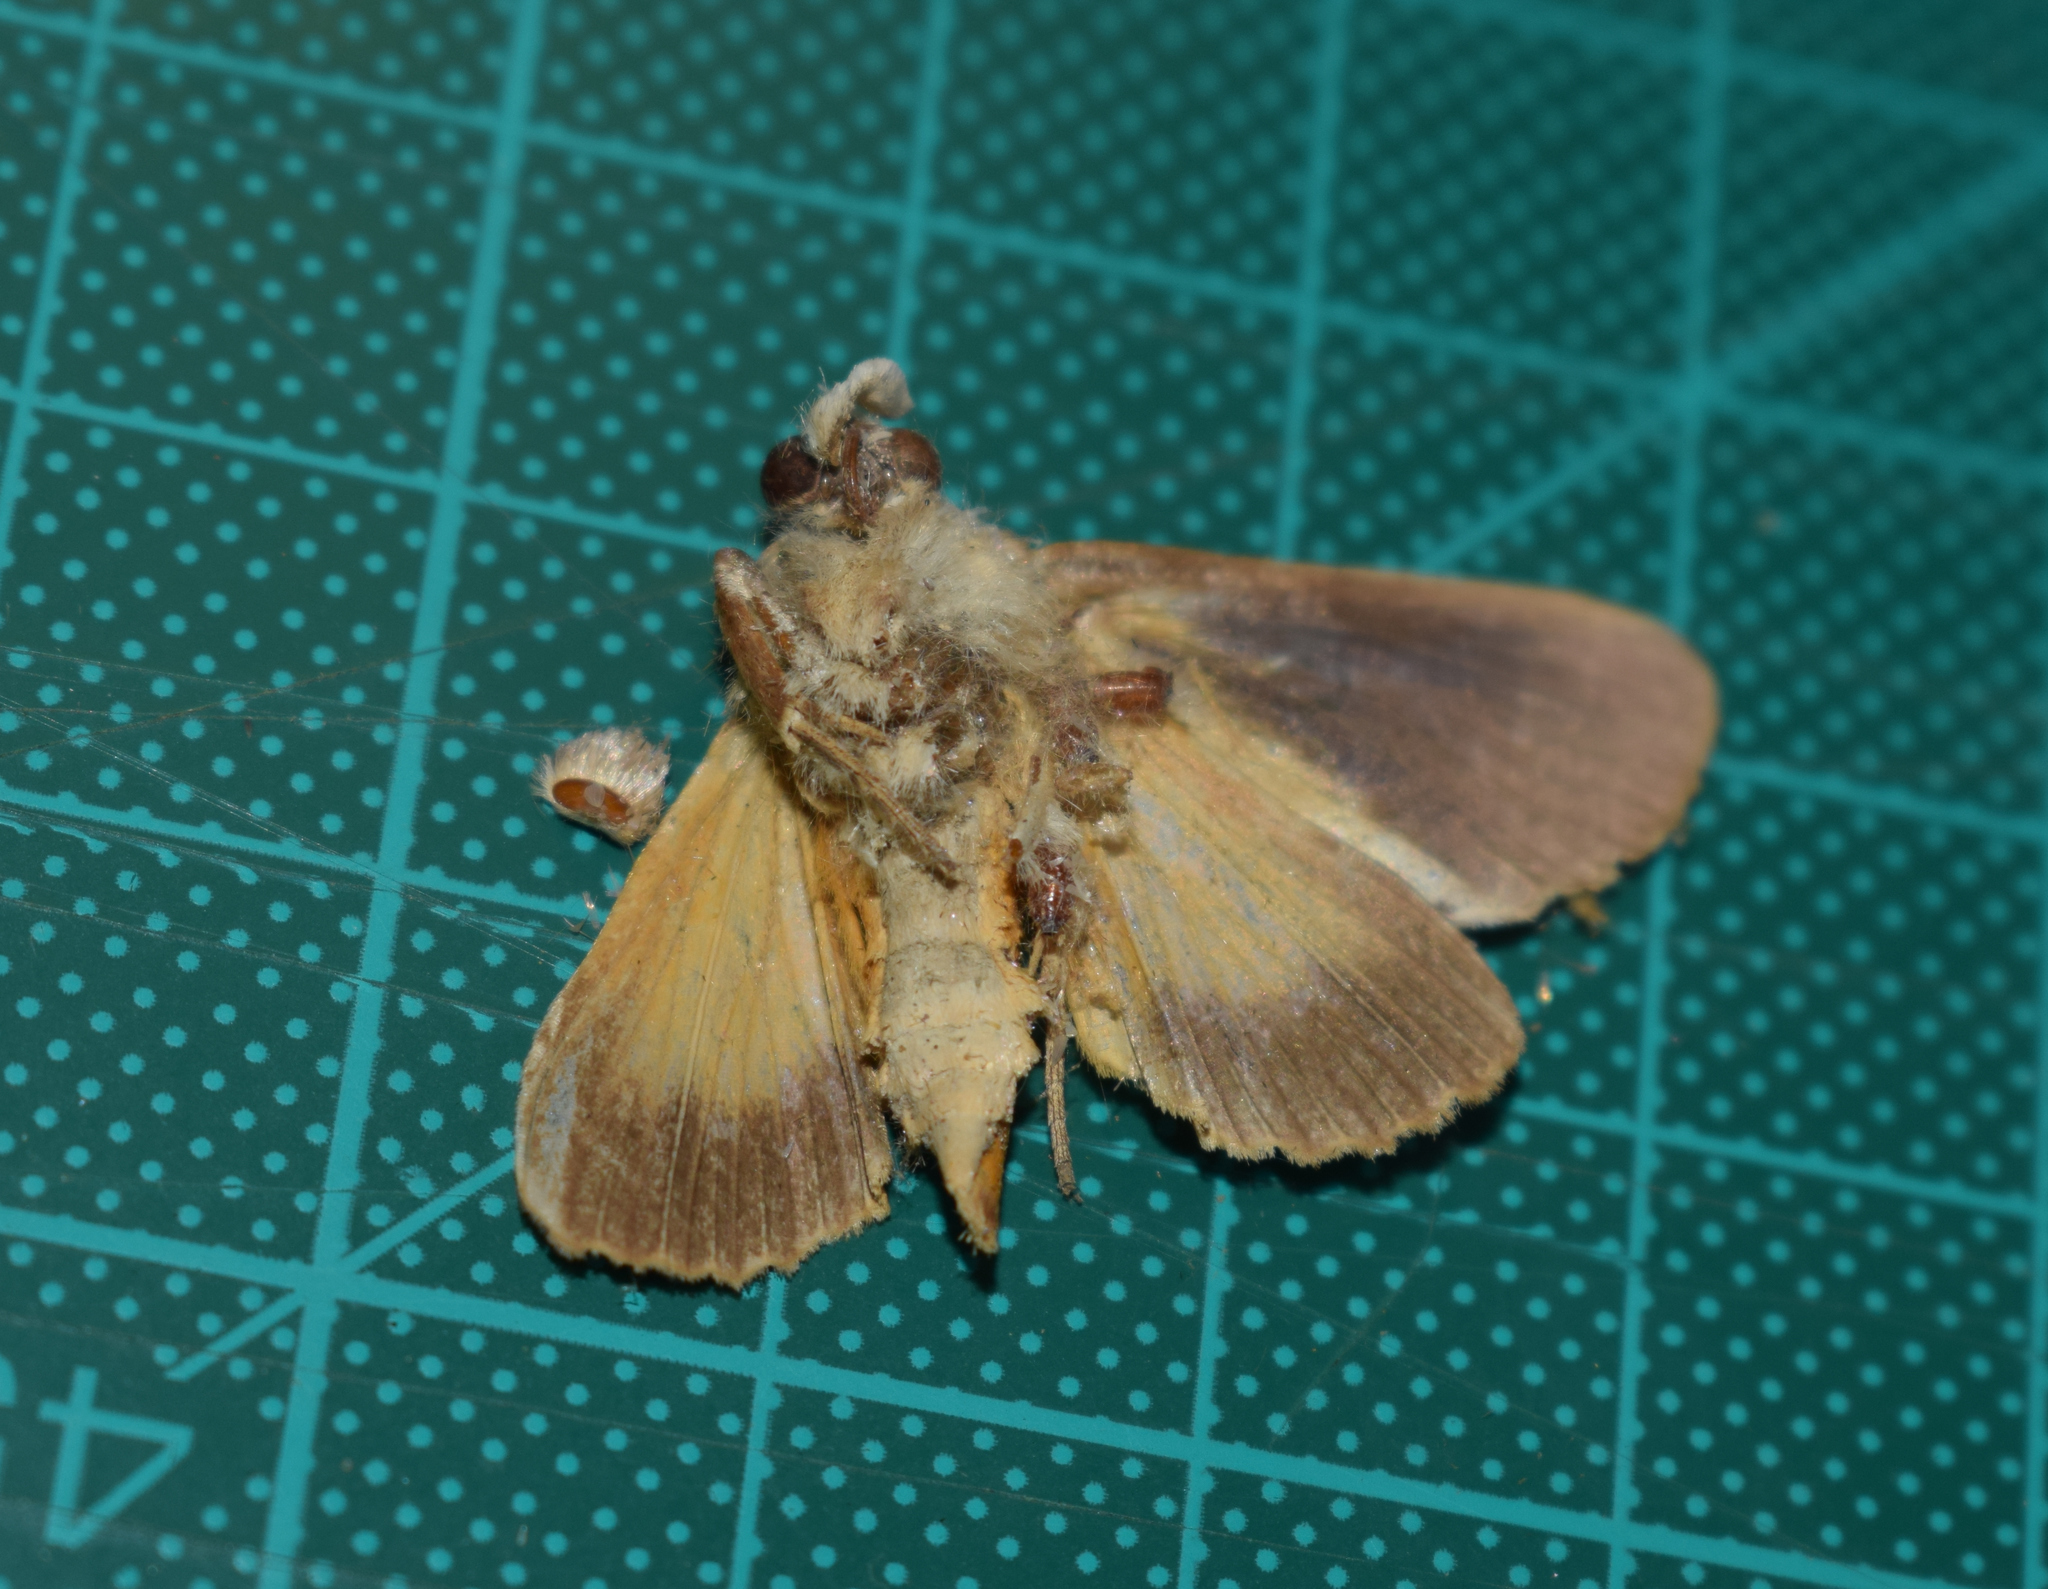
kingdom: Animalia
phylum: Arthropoda
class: Insecta
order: Lepidoptera
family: Erebidae
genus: Gonodonta
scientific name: Gonodonta indentata
